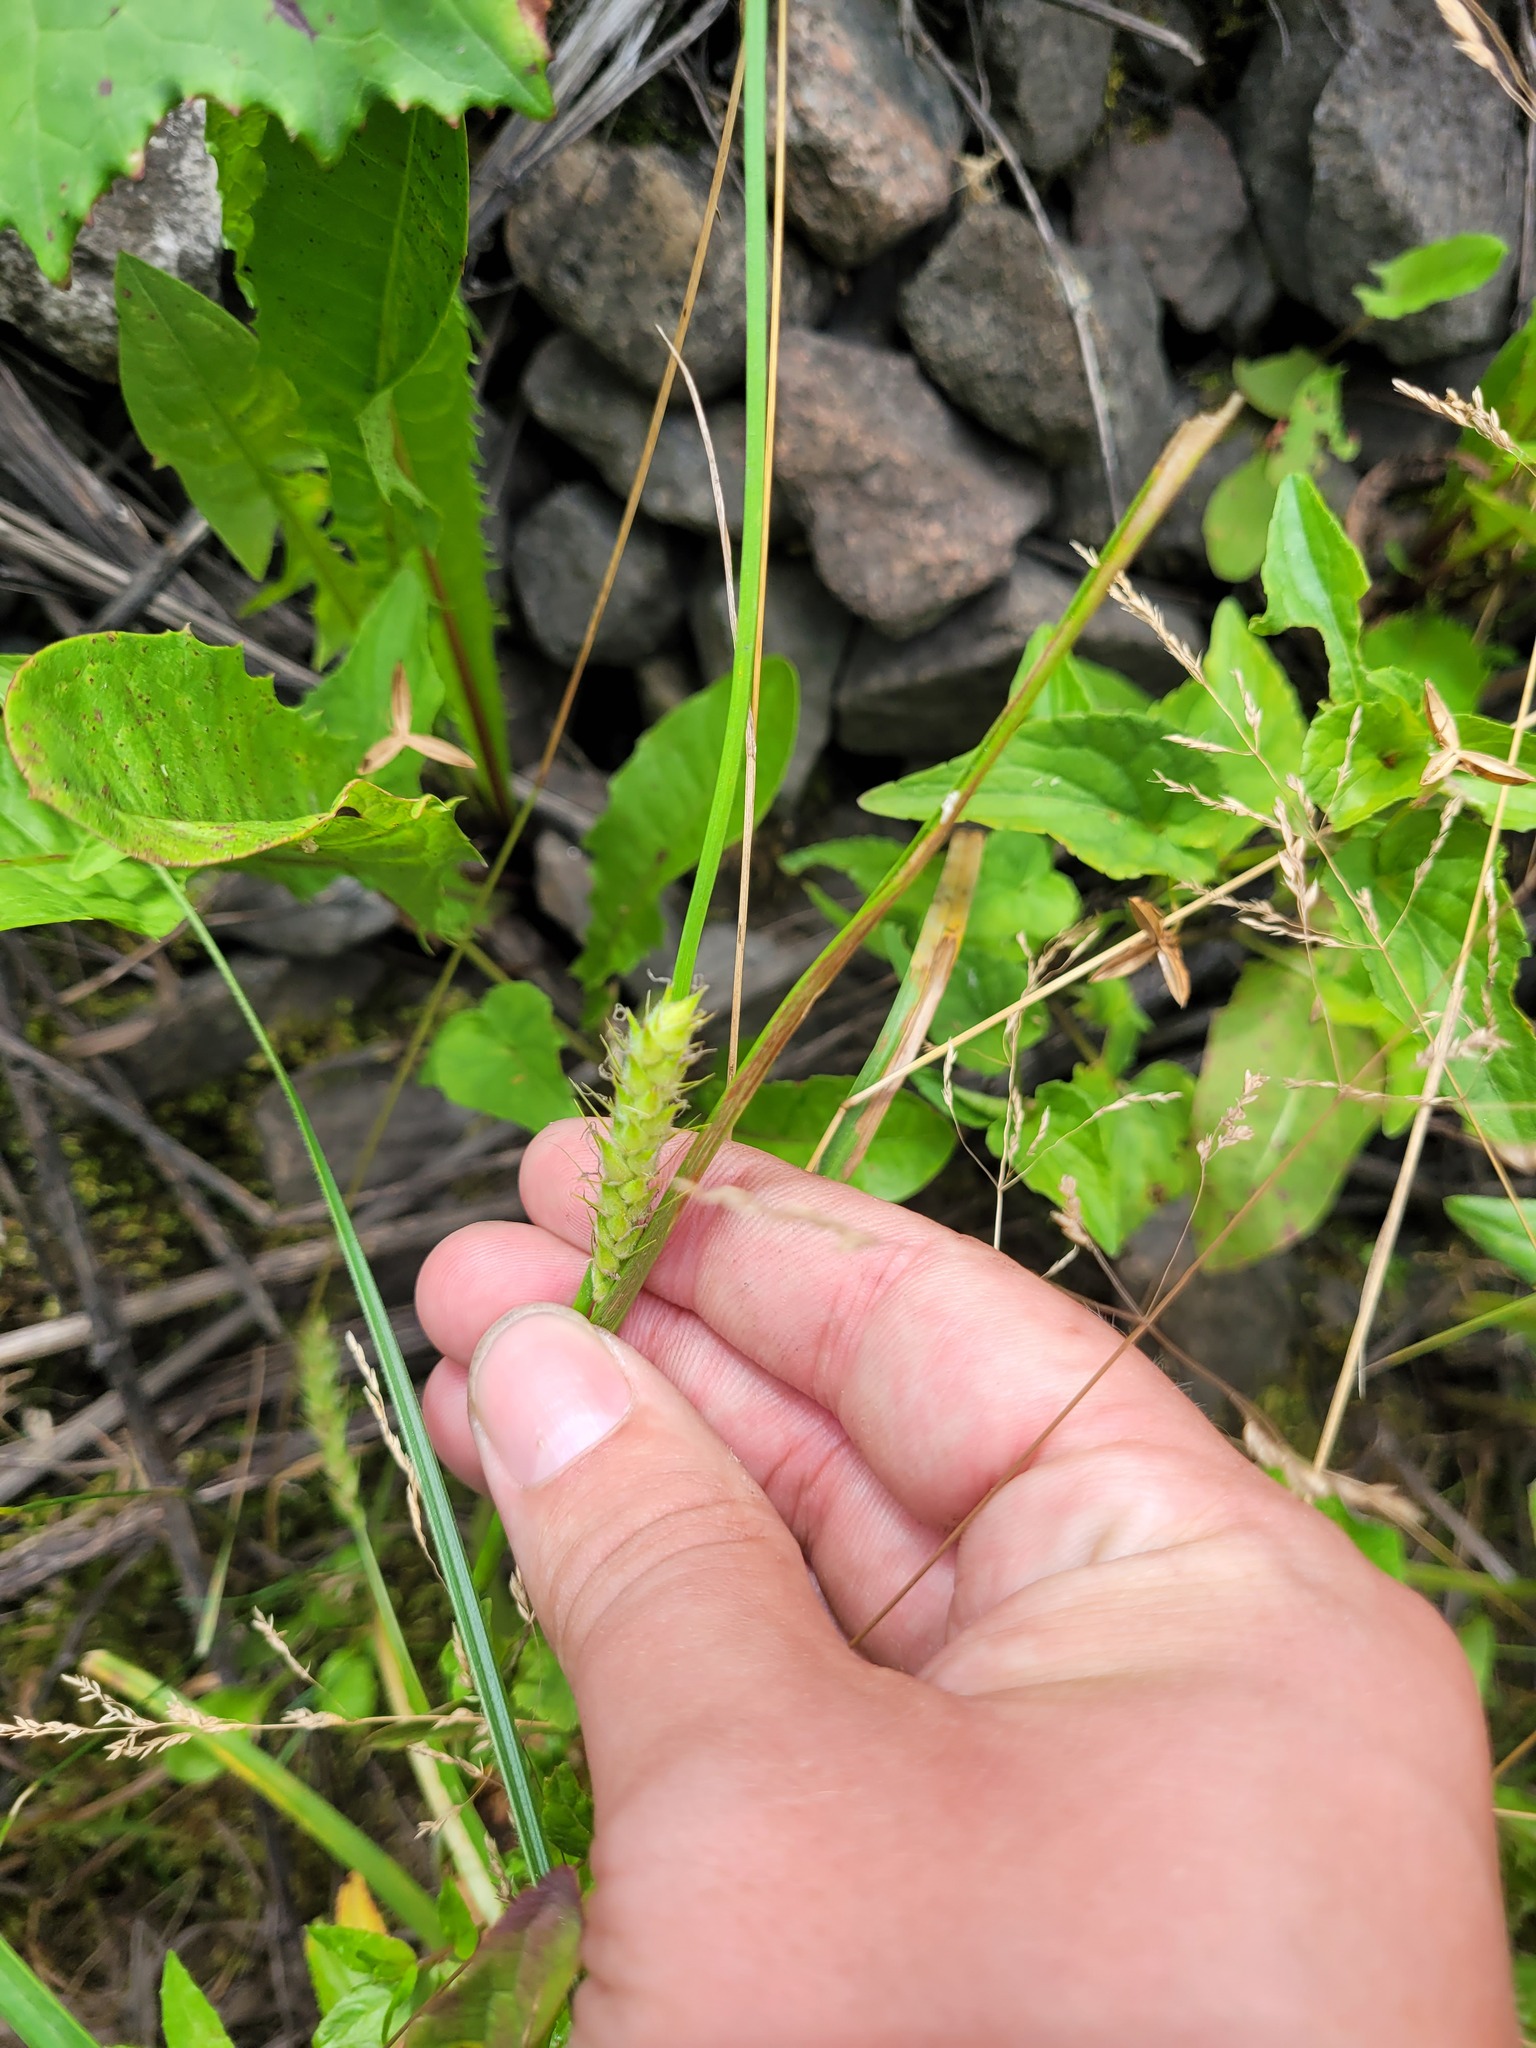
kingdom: Plantae
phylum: Tracheophyta
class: Liliopsida
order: Poales
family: Cyperaceae
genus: Carex
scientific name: Carex hirta
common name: Hairy sedge
